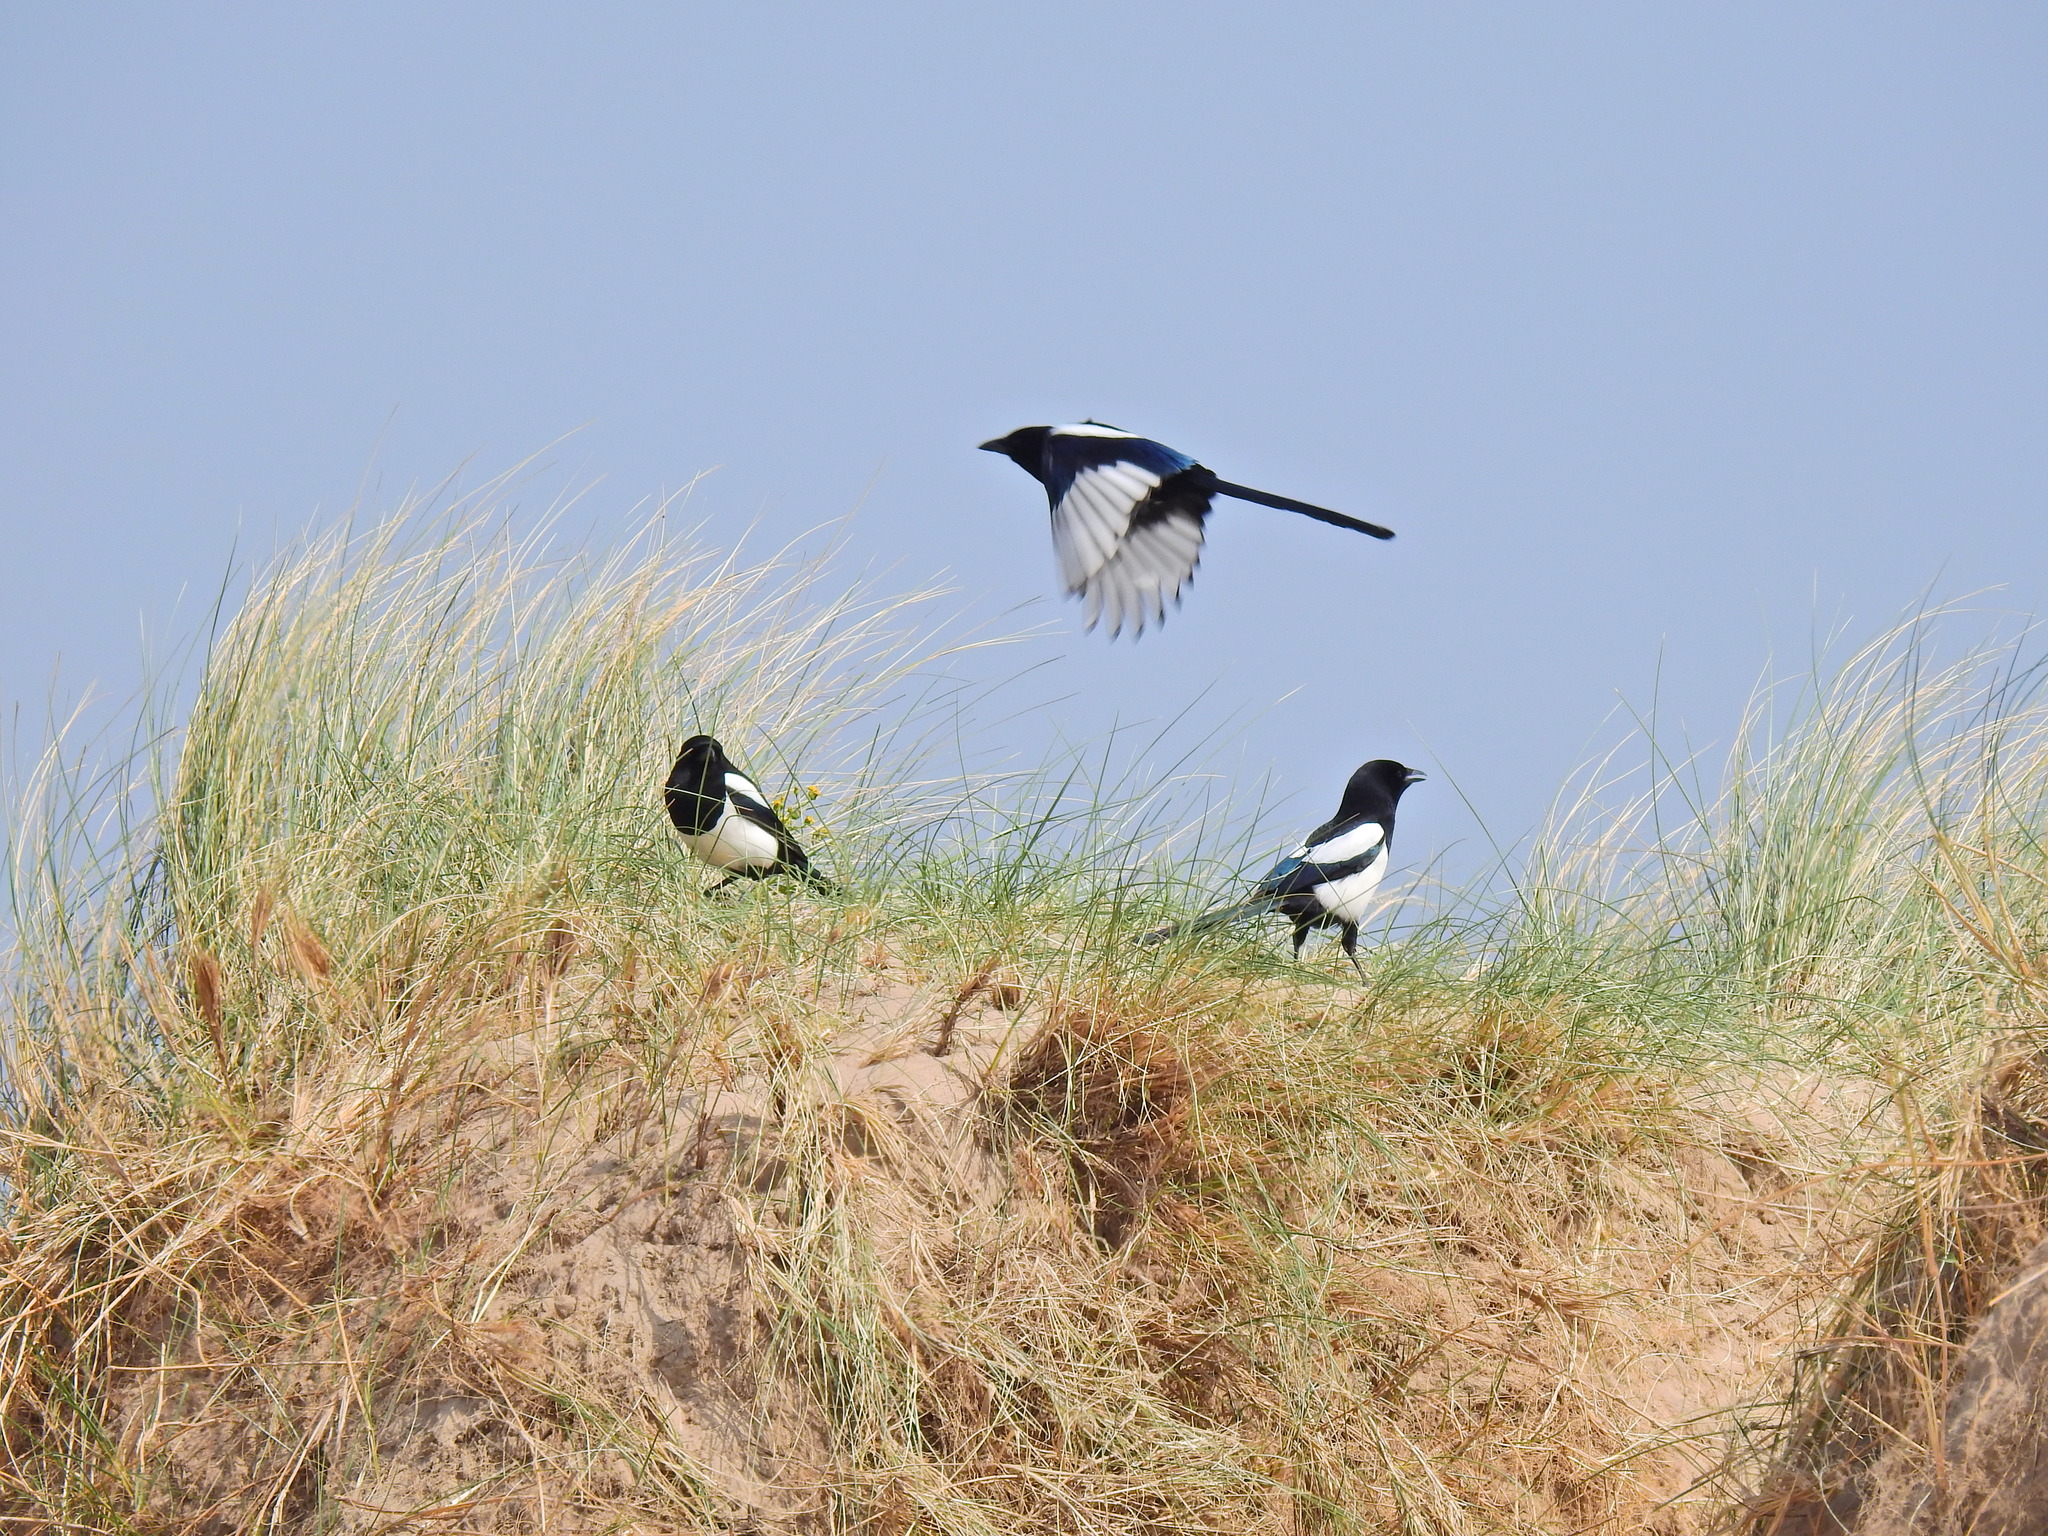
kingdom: Animalia
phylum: Chordata
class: Aves
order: Passeriformes
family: Corvidae
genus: Pica
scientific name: Pica pica
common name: Eurasian magpie
